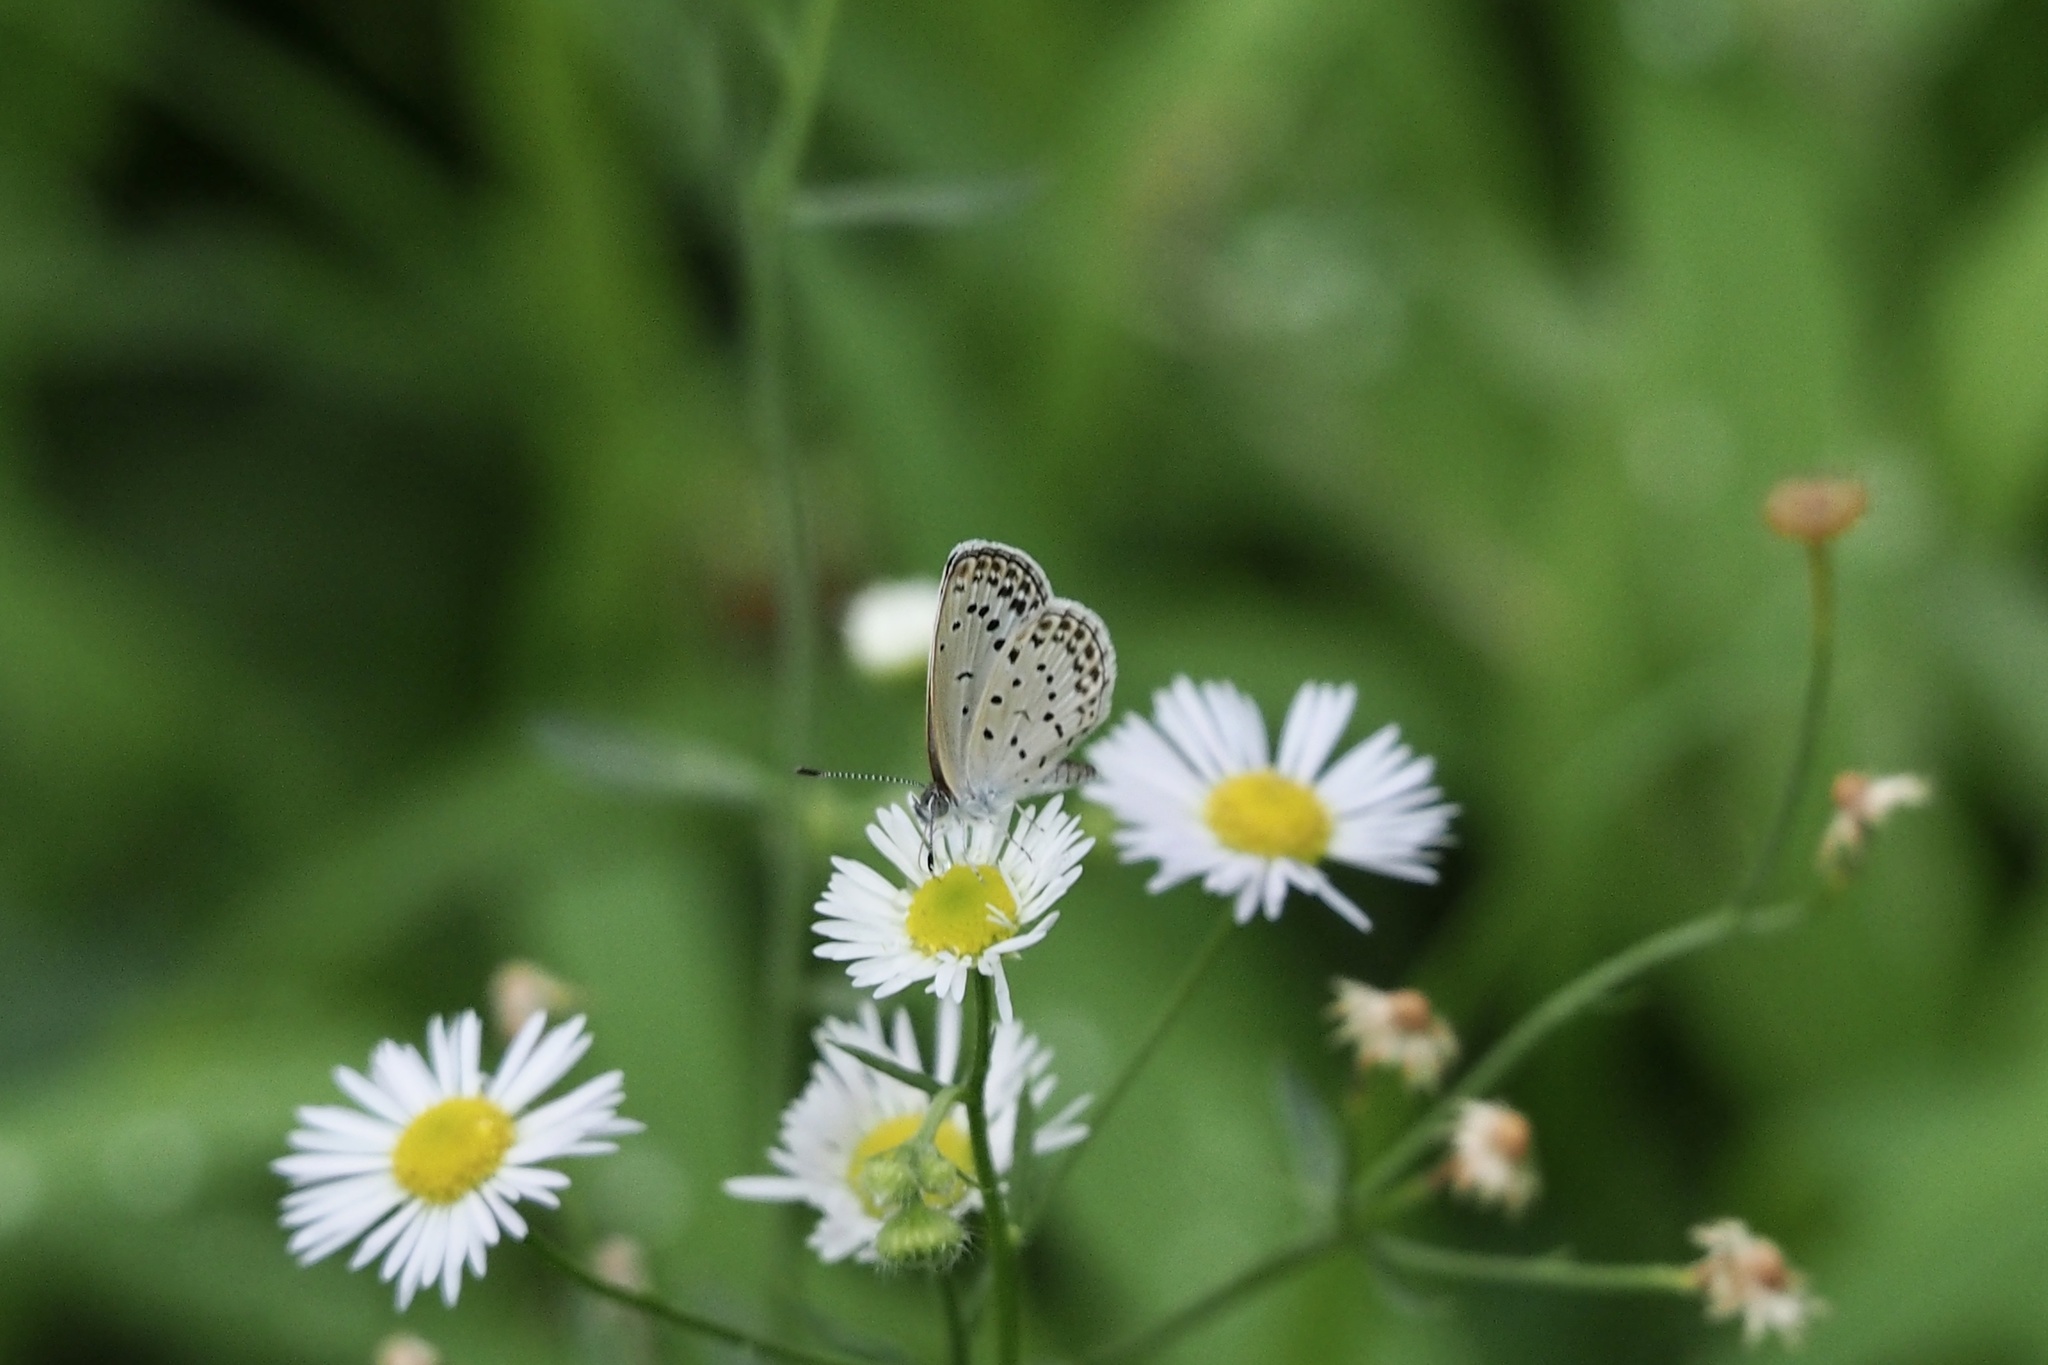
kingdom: Animalia
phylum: Arthropoda
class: Insecta
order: Lepidoptera
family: Lycaenidae
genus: Pseudozizeeria
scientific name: Pseudozizeeria maha
